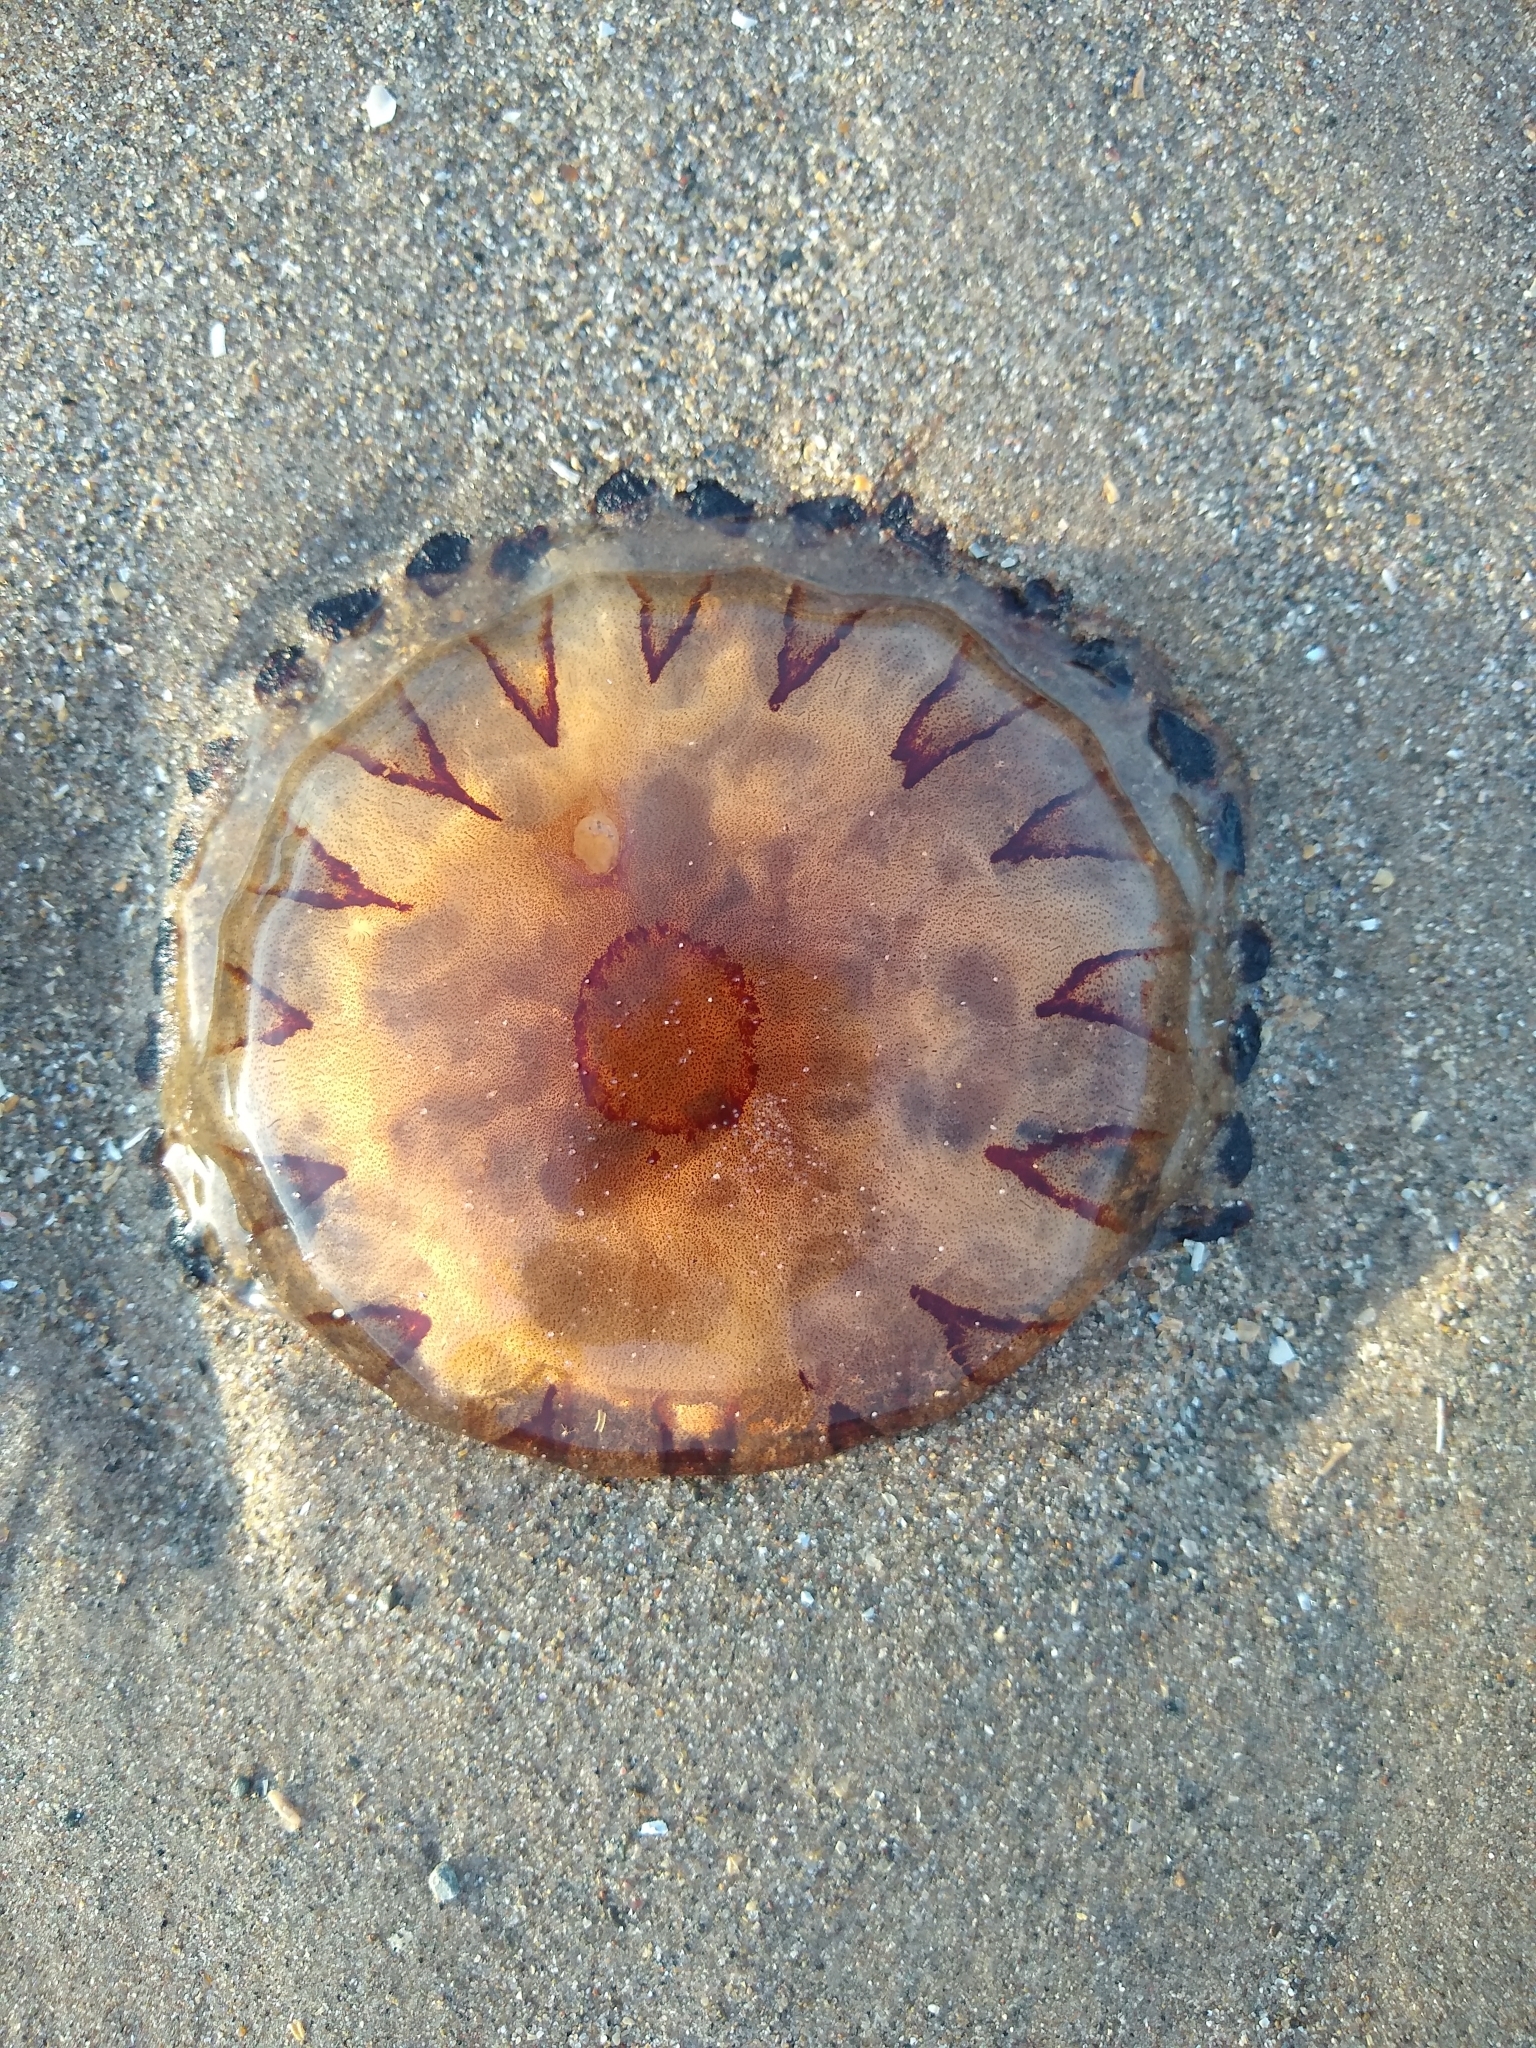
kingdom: Animalia
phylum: Cnidaria
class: Scyphozoa
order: Semaeostomeae
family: Pelagiidae
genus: Chrysaora
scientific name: Chrysaora hysoscella
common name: Compass jellyfish
